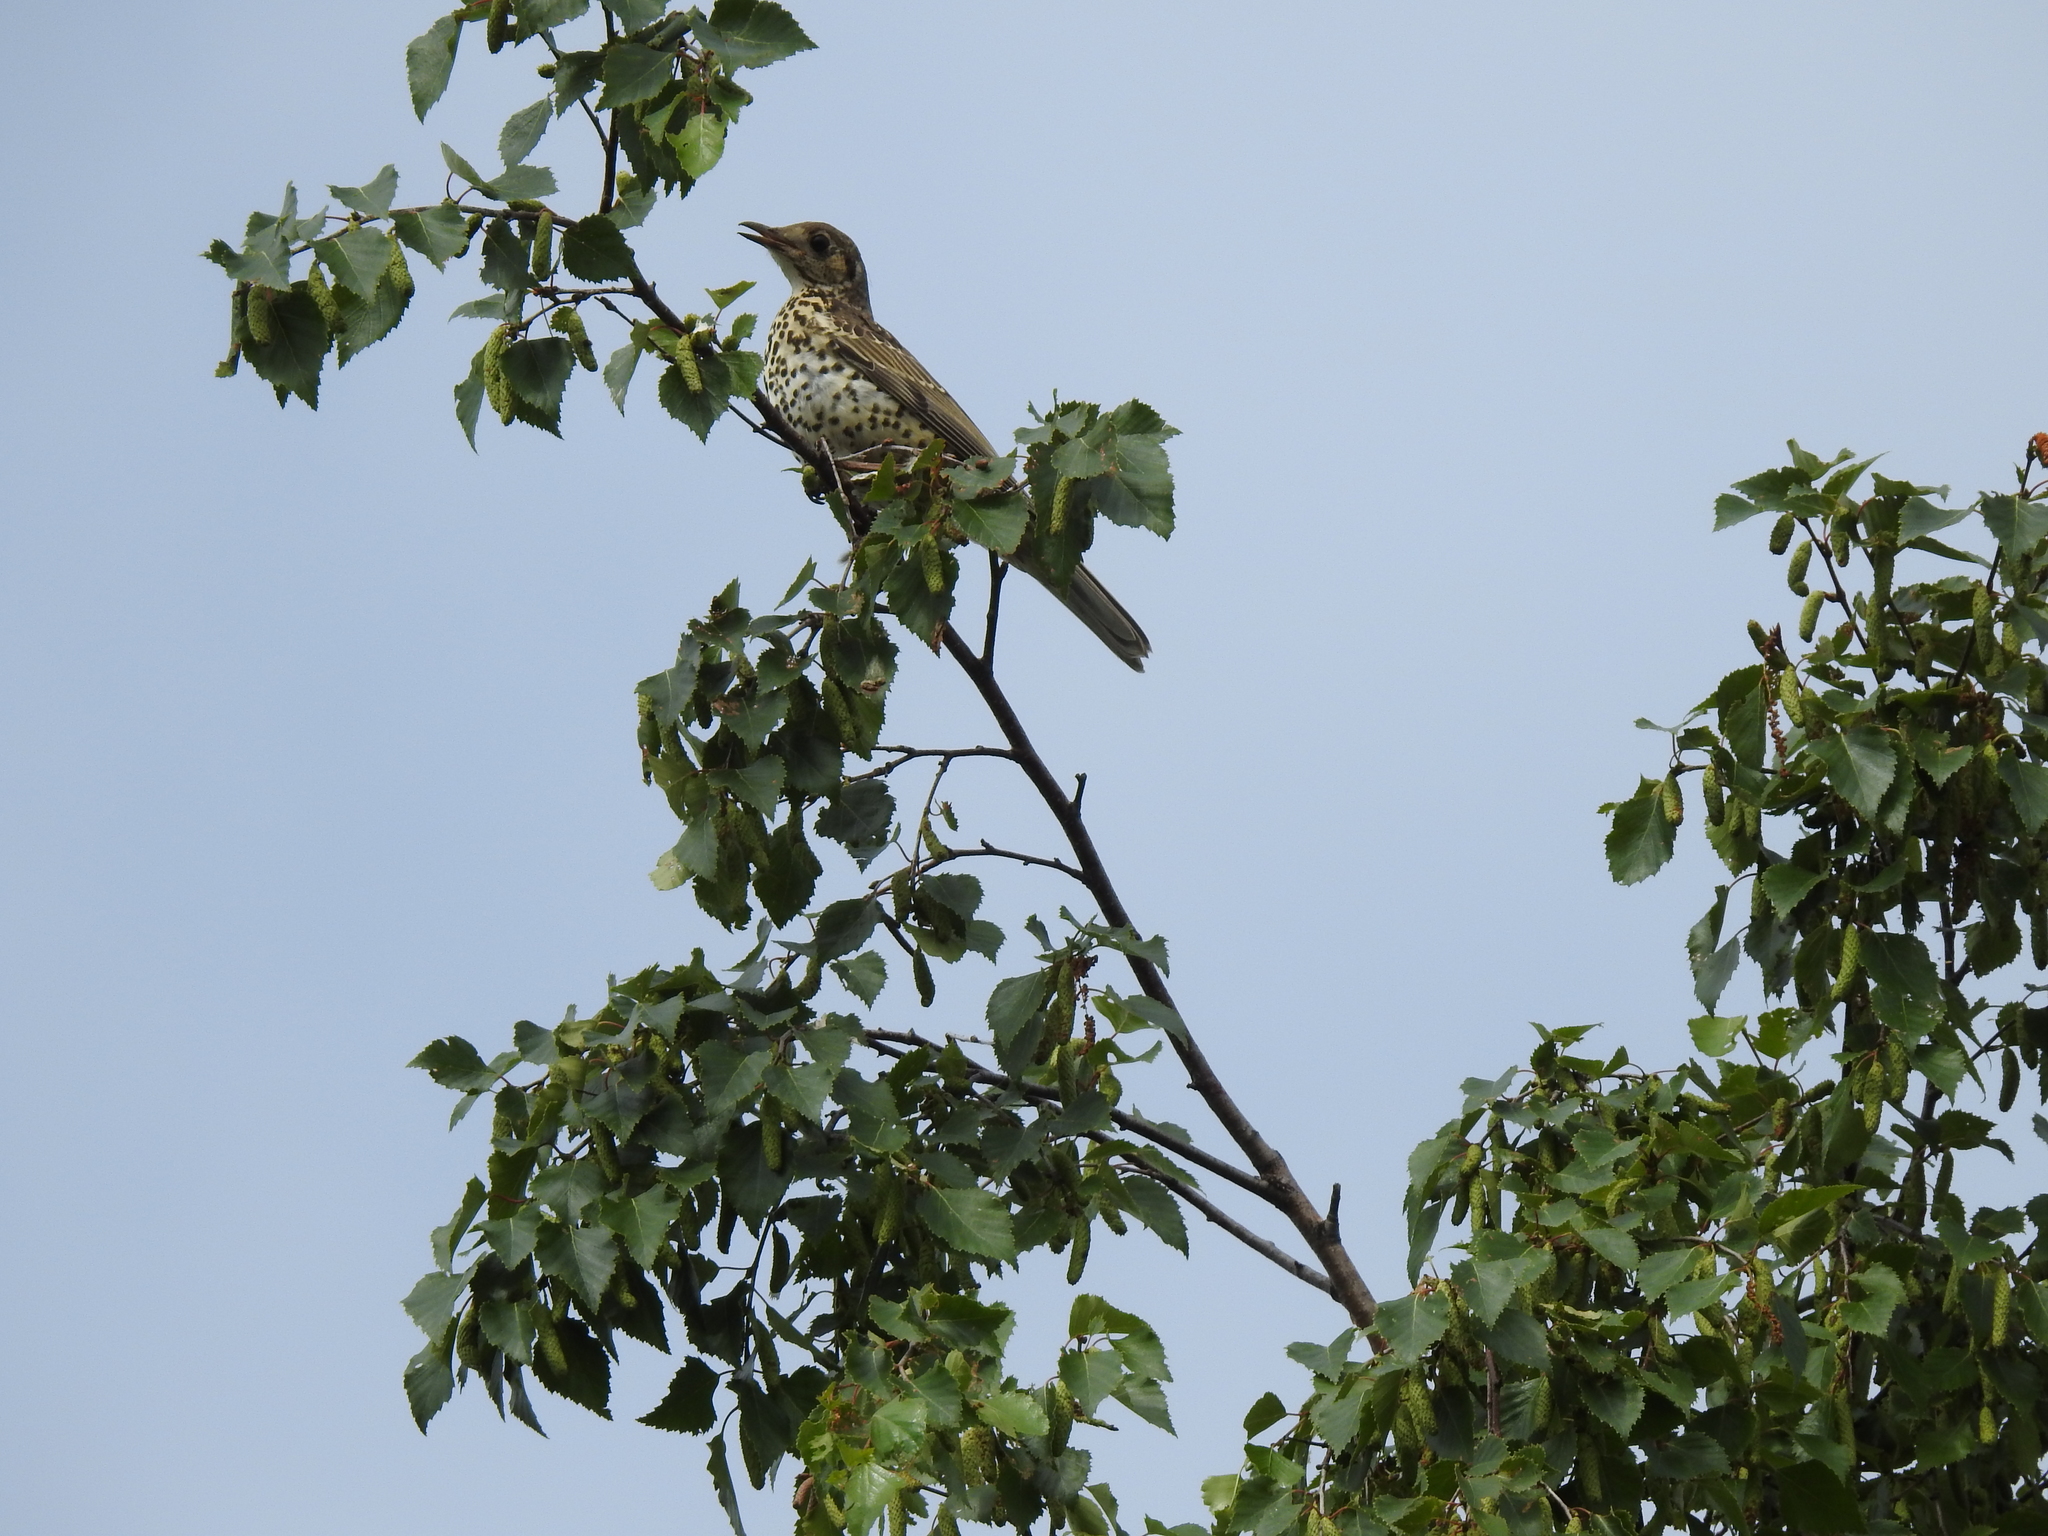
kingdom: Animalia
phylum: Chordata
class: Aves
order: Passeriformes
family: Turdidae
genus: Turdus
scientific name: Turdus viscivorus
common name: Mistle thrush
